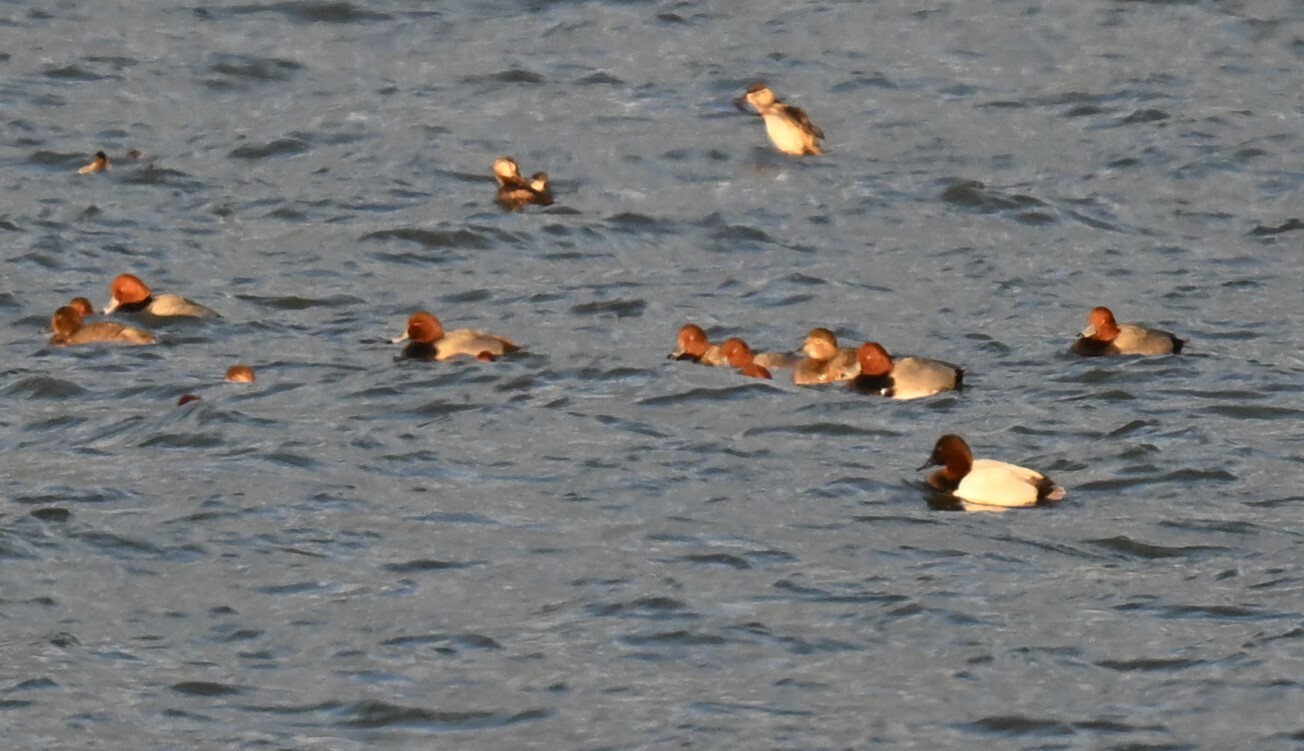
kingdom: Animalia
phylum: Chordata
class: Aves
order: Anseriformes
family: Anatidae
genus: Aythya
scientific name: Aythya americana
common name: Redhead
